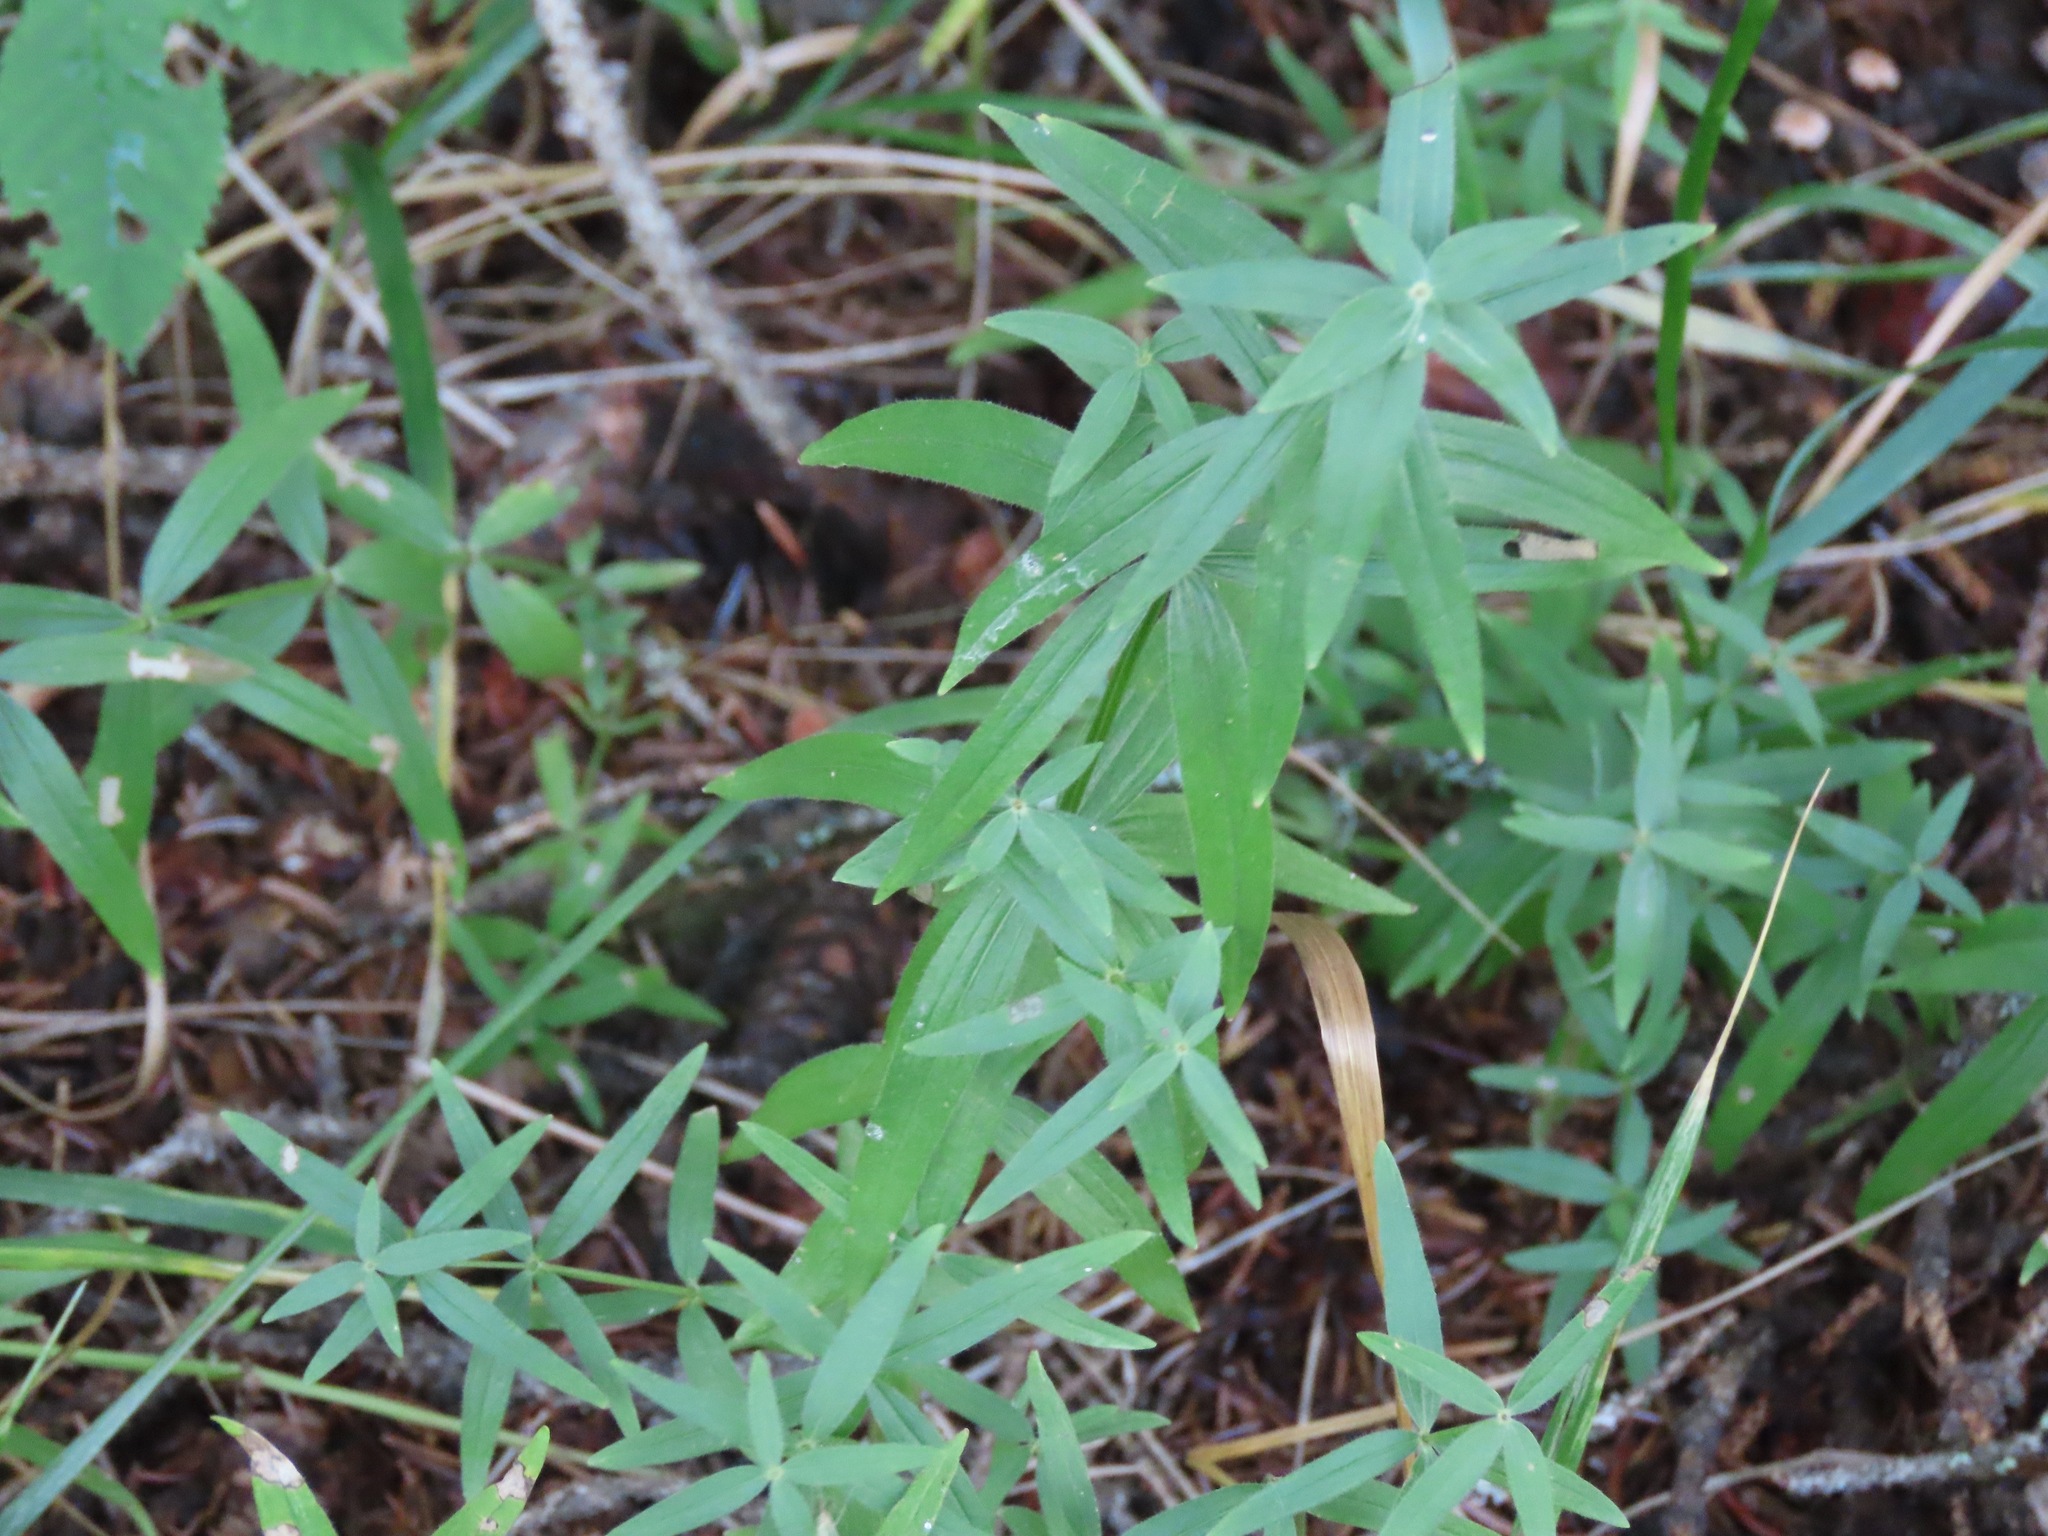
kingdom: Plantae
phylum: Tracheophyta
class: Magnoliopsida
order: Gentianales
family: Rubiaceae
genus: Galium
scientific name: Galium boreale
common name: Northern bedstraw
